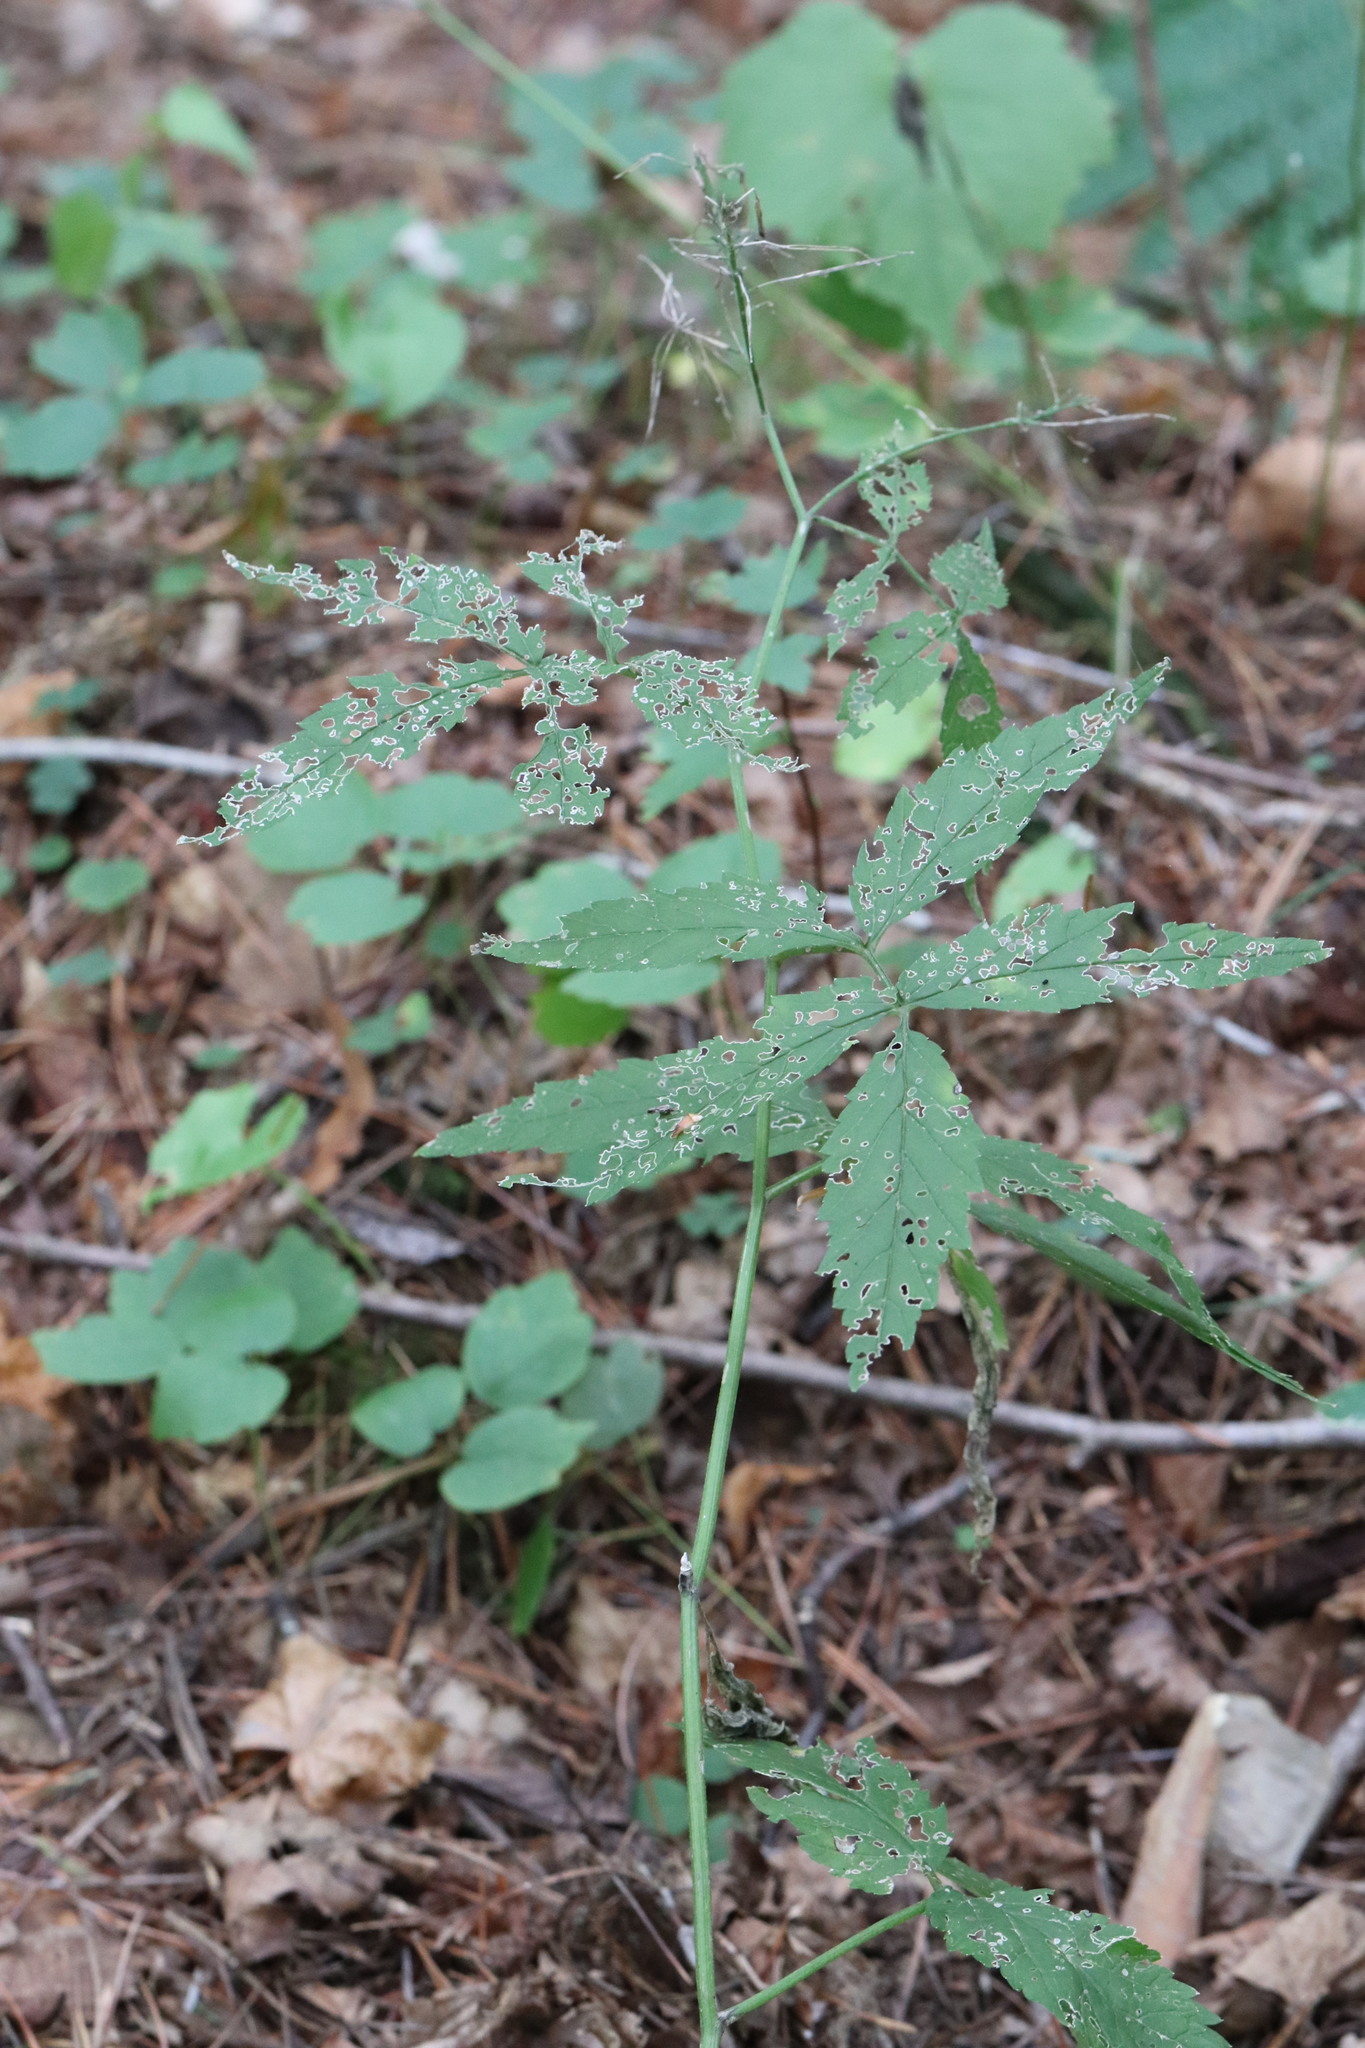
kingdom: Plantae
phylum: Tracheophyta
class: Magnoliopsida
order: Brassicales
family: Brassicaceae
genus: Cardamine
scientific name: Cardamine leucantha
